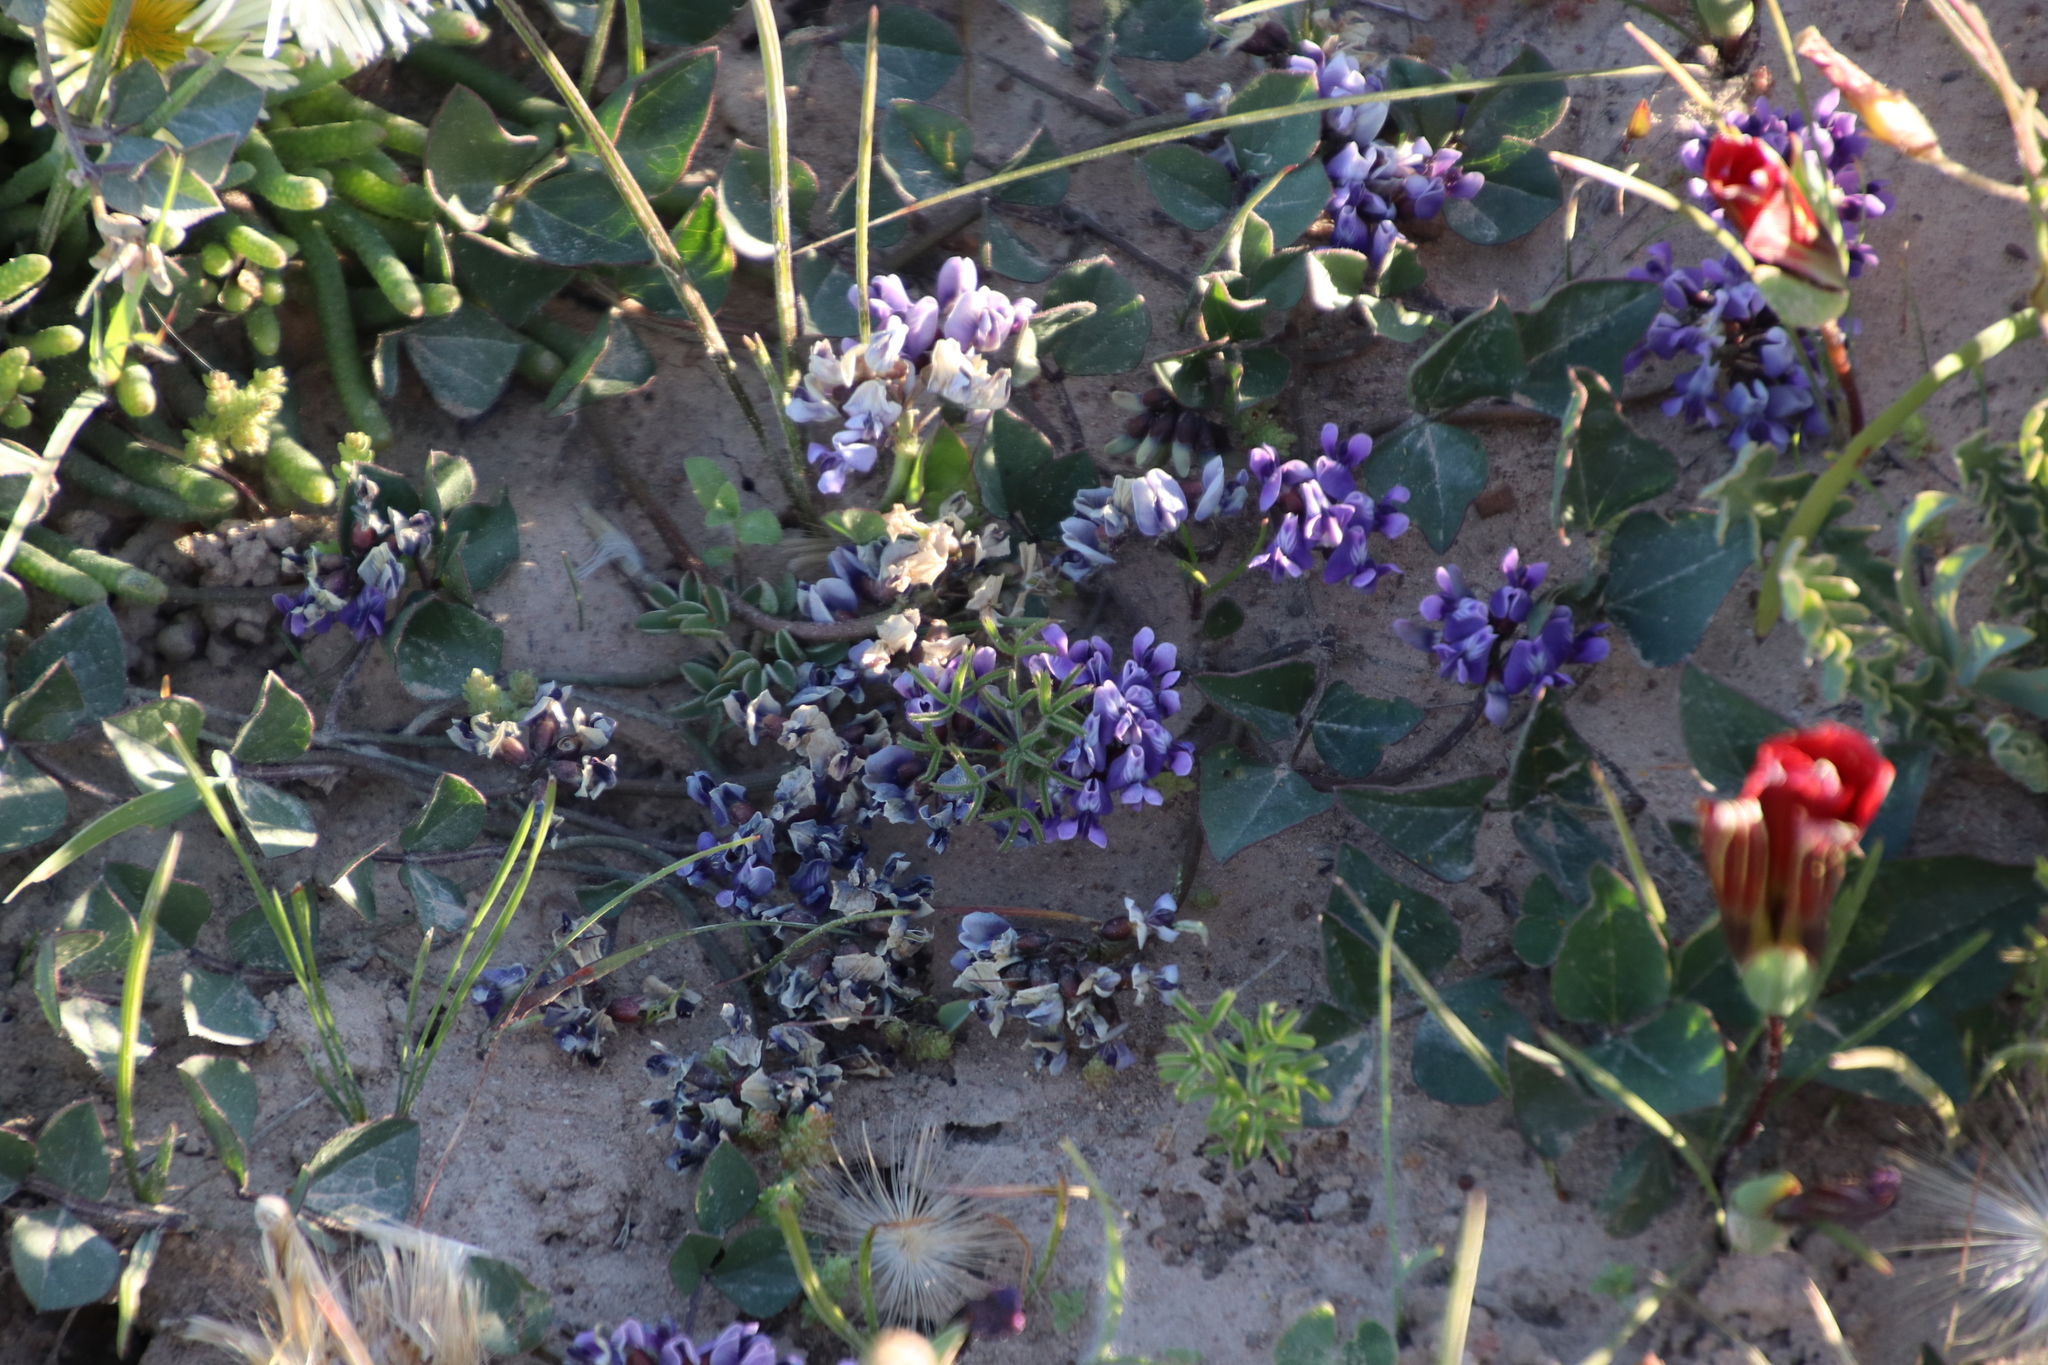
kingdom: Plantae
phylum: Tracheophyta
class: Magnoliopsida
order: Fabales
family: Fabaceae
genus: Dolichos
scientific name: Dolichos decumbens
